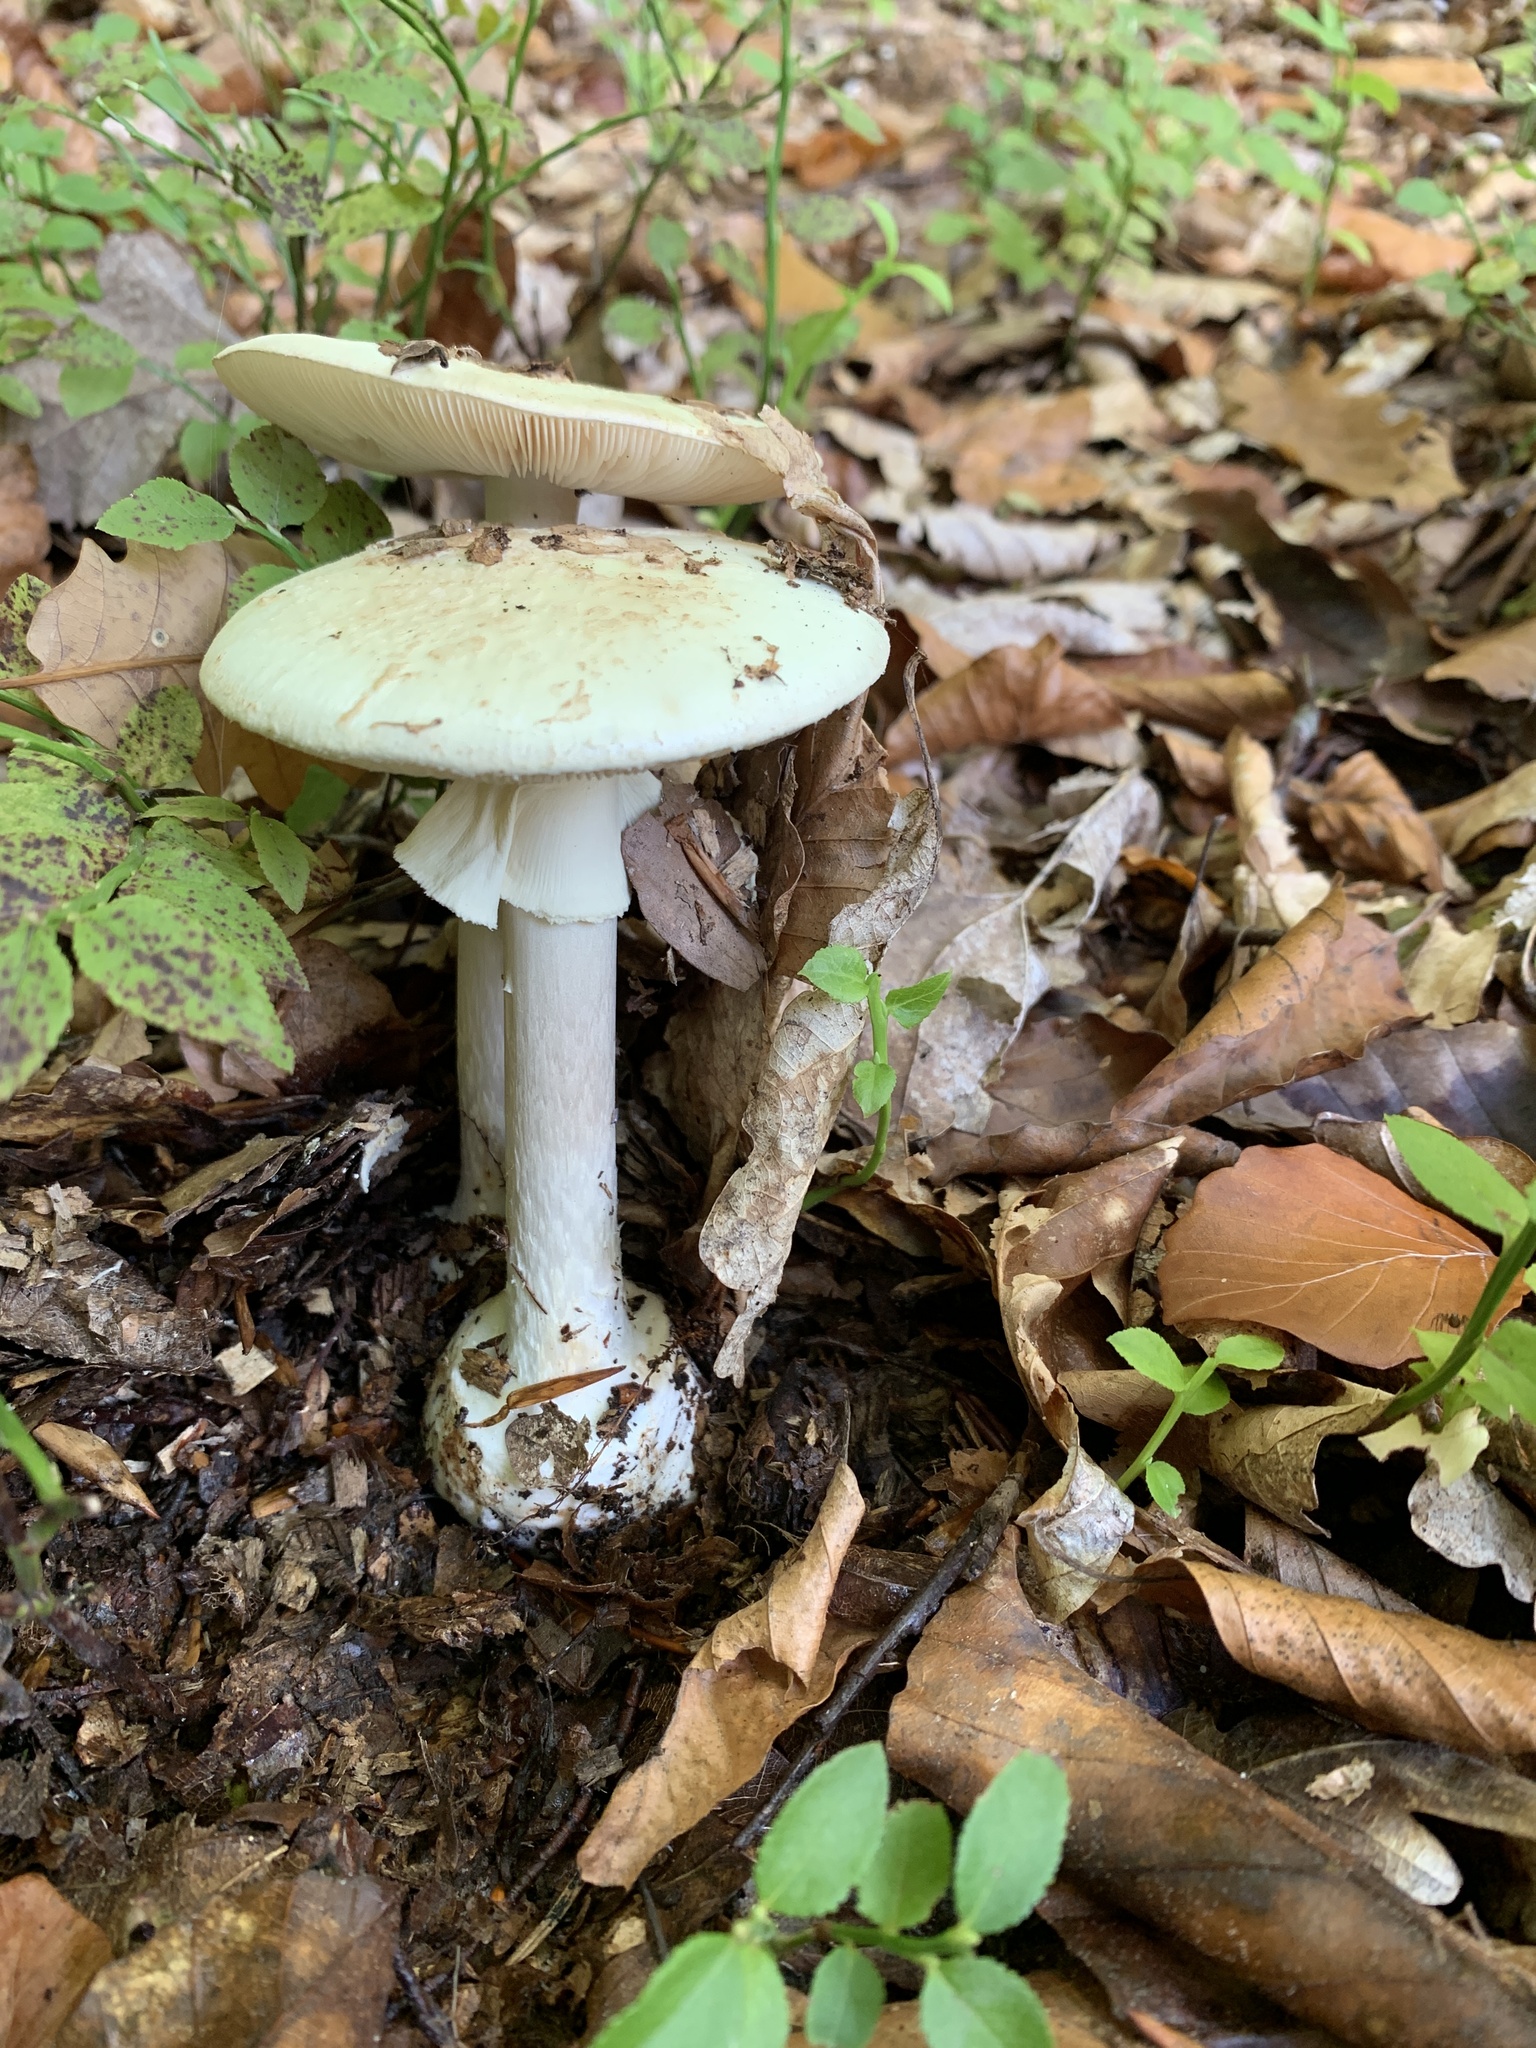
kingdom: Fungi
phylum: Basidiomycota
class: Agaricomycetes
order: Agaricales
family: Amanitaceae
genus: Amanita
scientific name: Amanita phalloides
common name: Death cap
